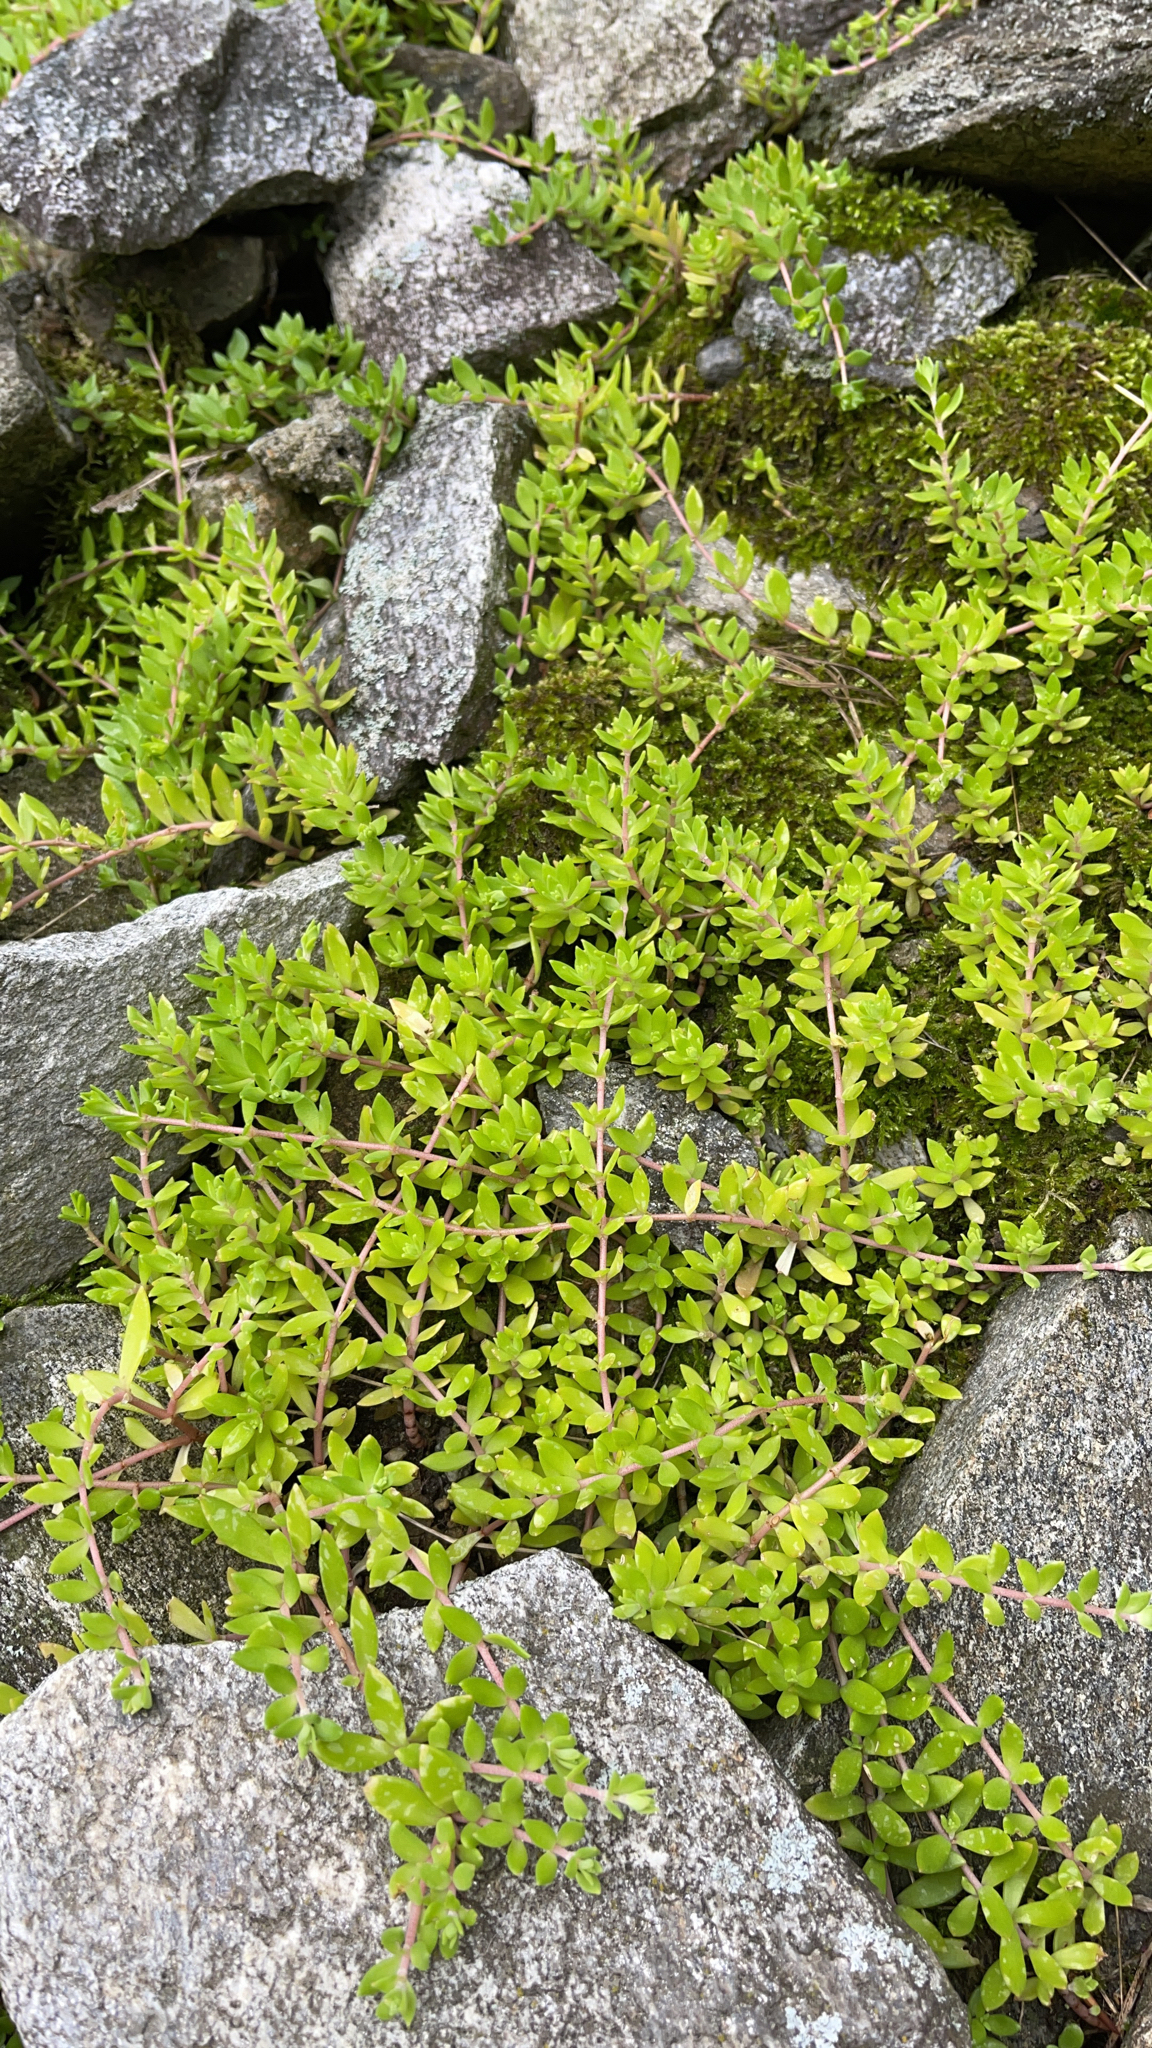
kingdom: Plantae
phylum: Tracheophyta
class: Magnoliopsida
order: Saxifragales
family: Crassulaceae
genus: Sedum
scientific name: Sedum sarmentosum
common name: Stringy stonecrop
